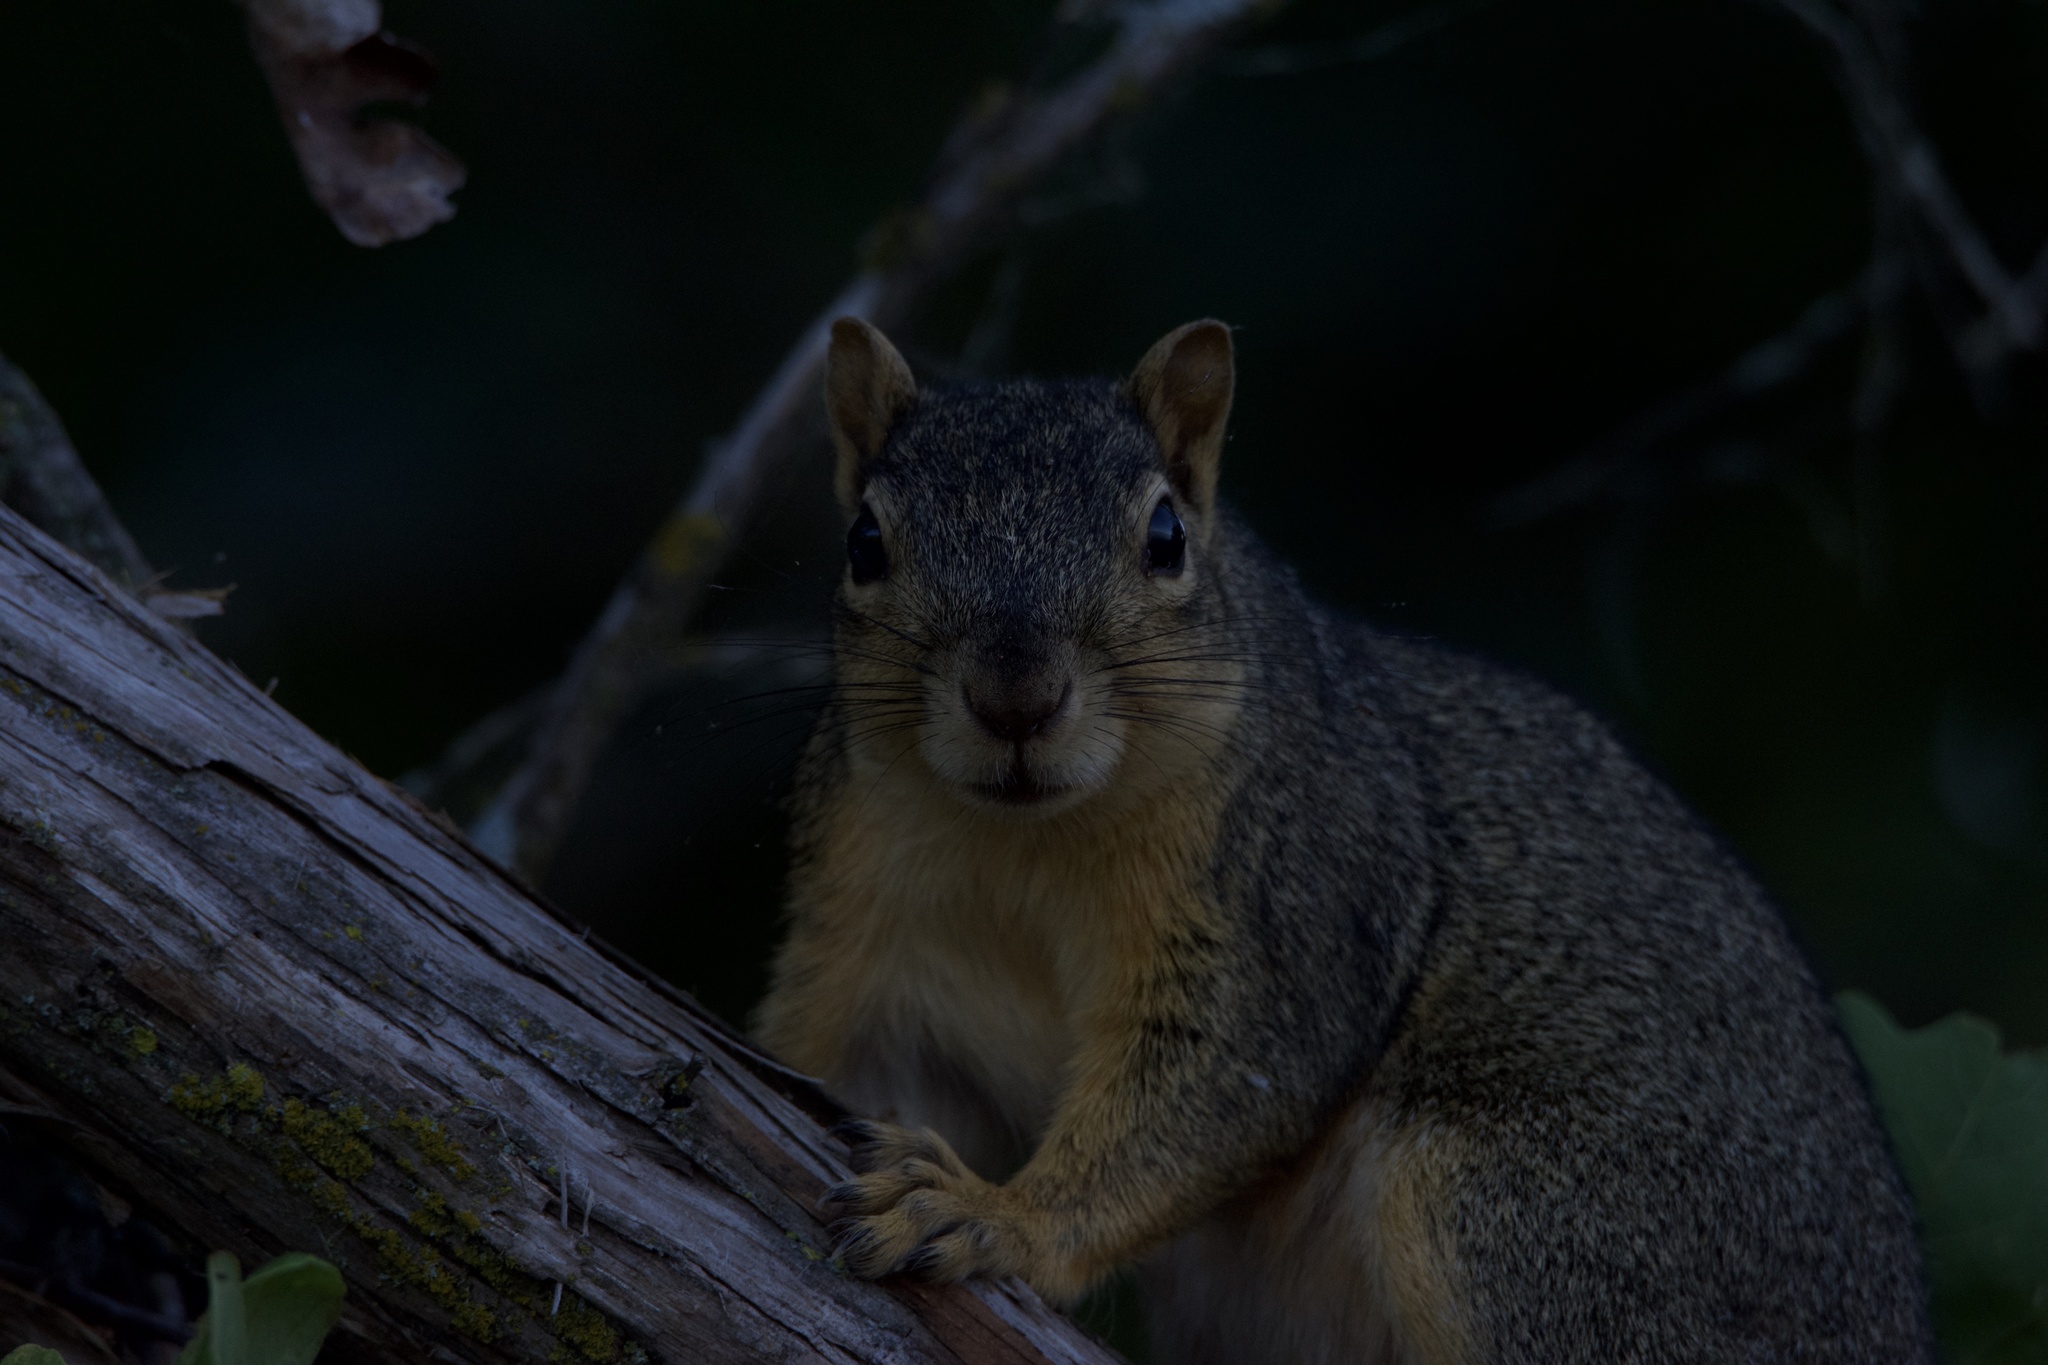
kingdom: Animalia
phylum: Chordata
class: Mammalia
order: Rodentia
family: Sciuridae
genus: Sciurus
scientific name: Sciurus niger
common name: Fox squirrel
